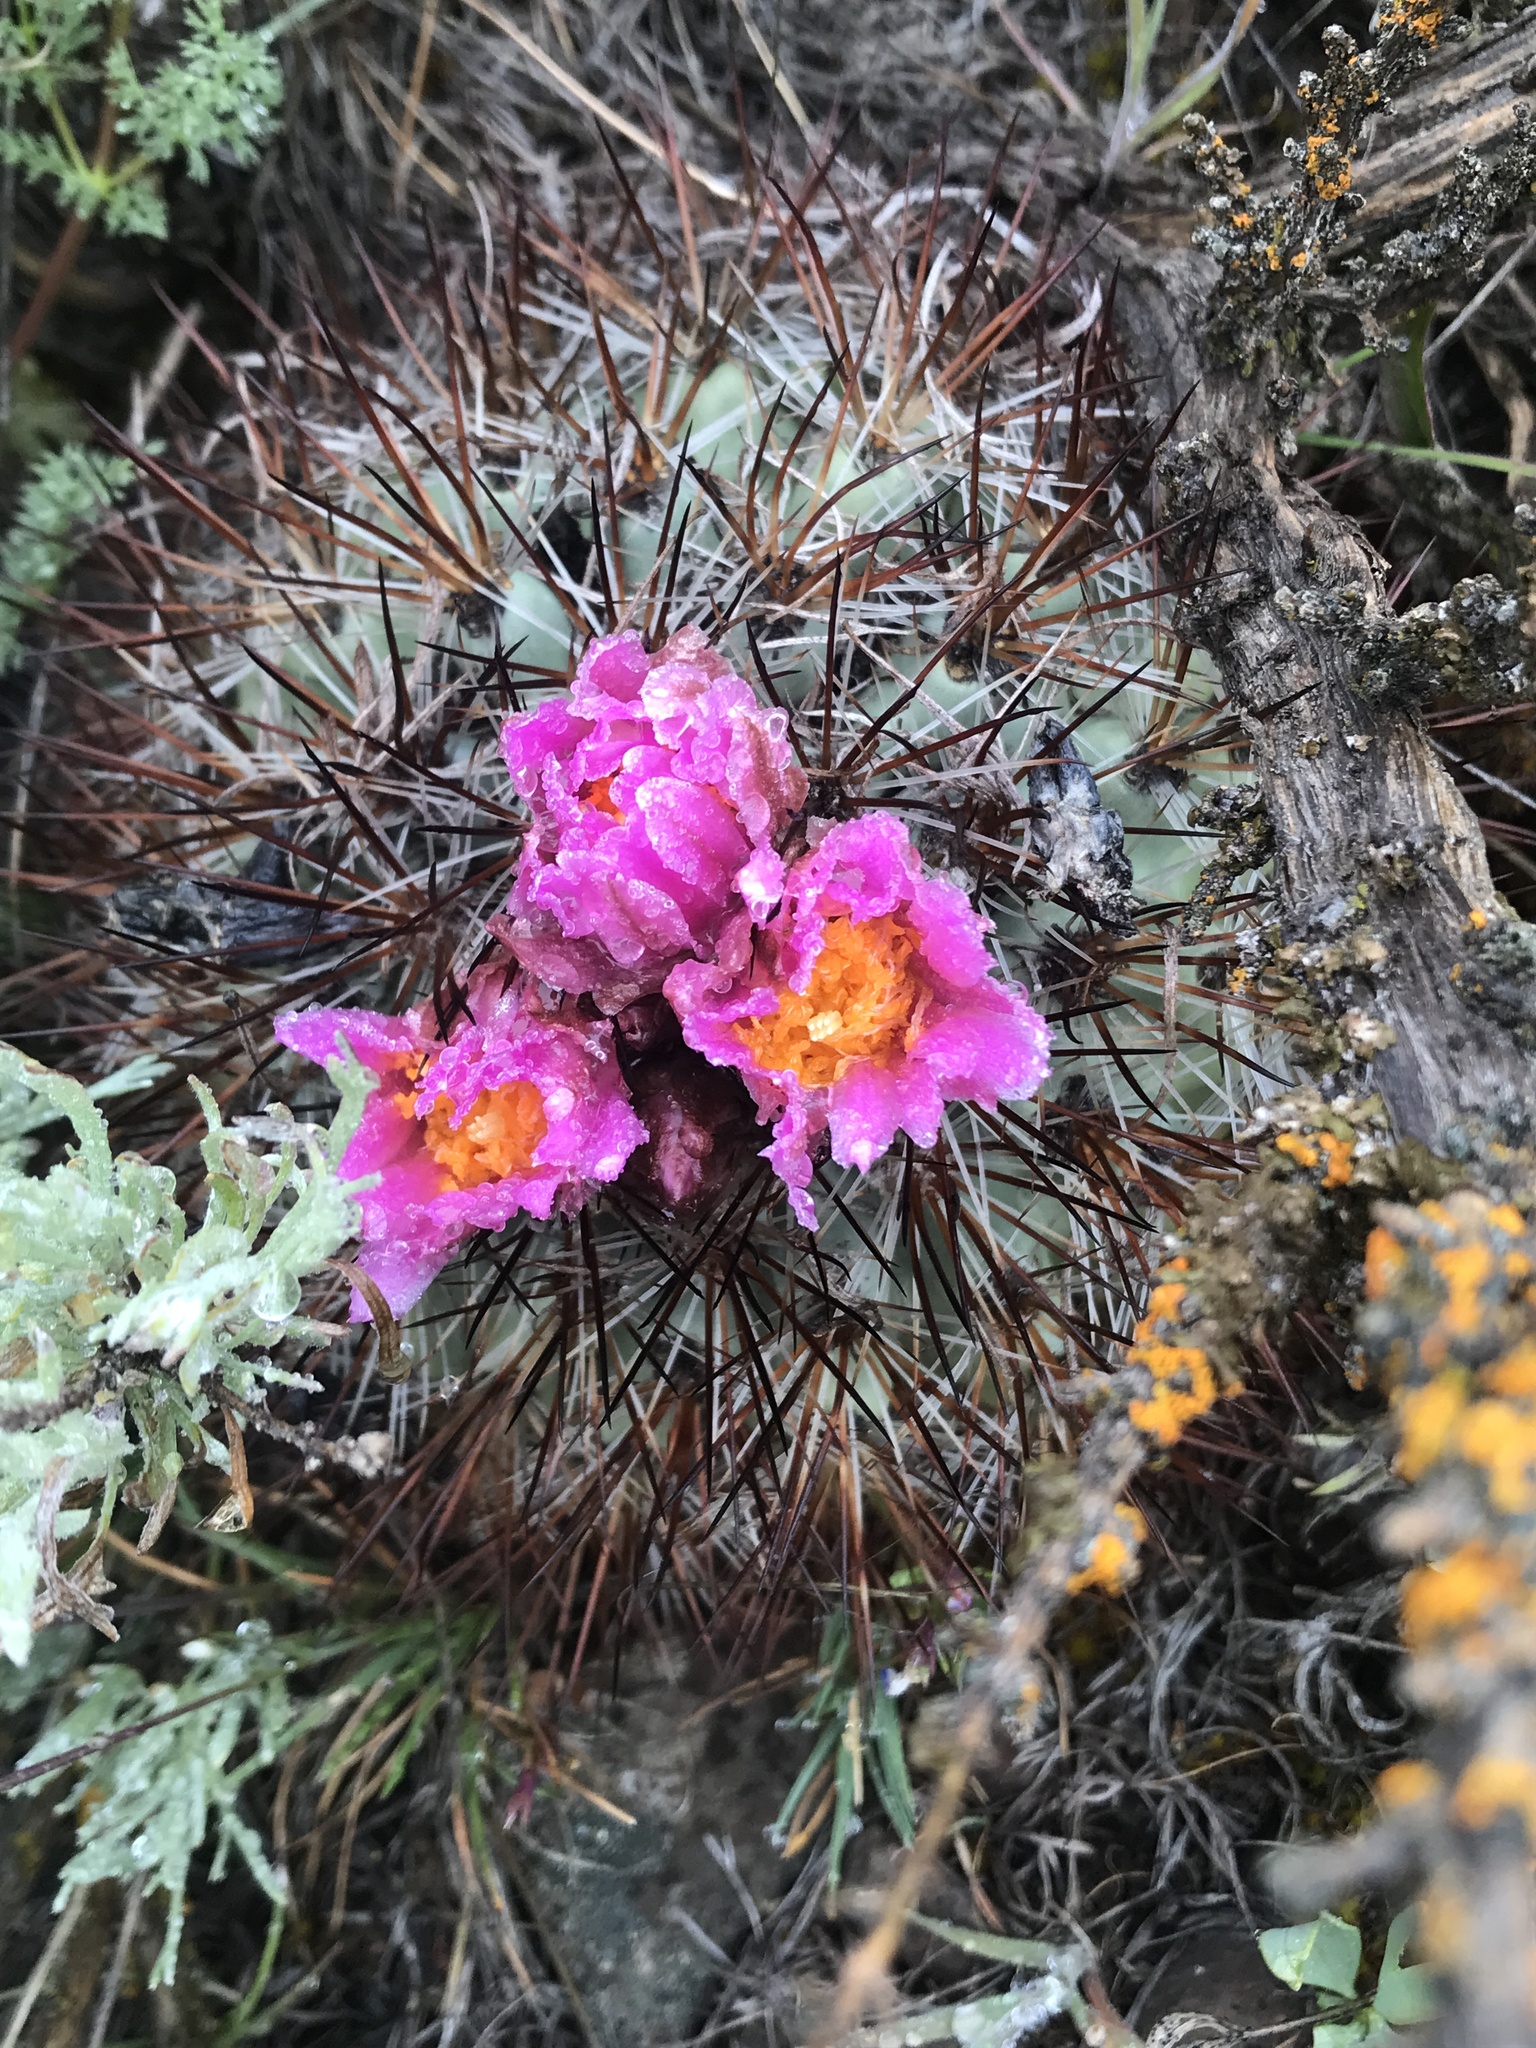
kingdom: Plantae
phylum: Tracheophyta
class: Magnoliopsida
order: Caryophyllales
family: Cactaceae
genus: Pediocactus
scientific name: Pediocactus nigrispinus
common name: Simpson's hedgehog cactus
